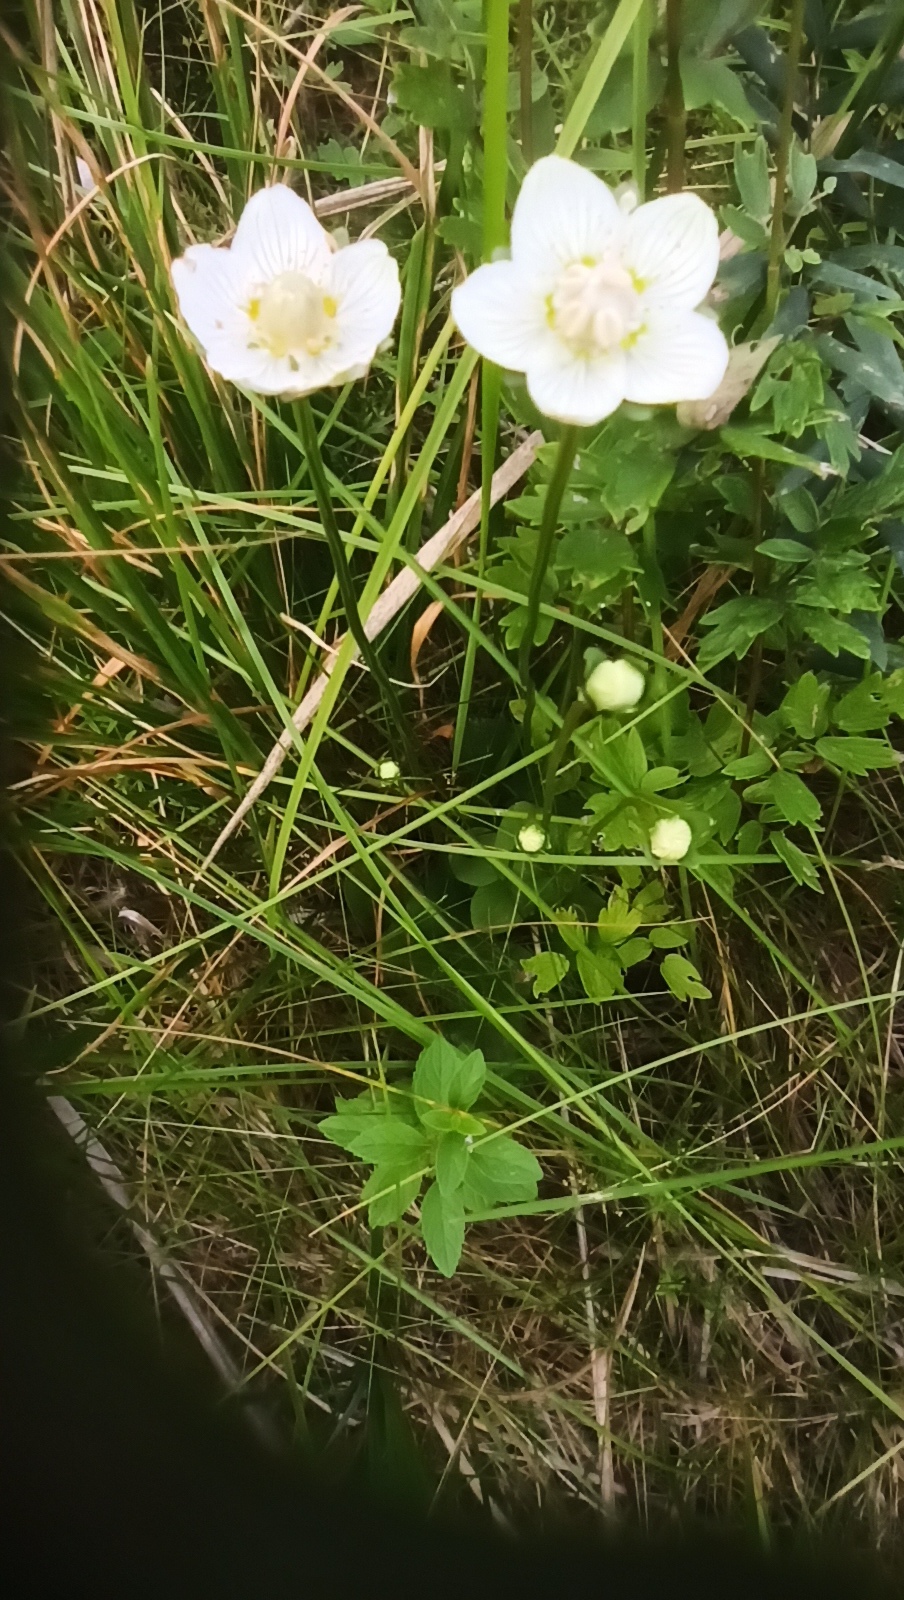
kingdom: Plantae
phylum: Tracheophyta
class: Magnoliopsida
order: Celastrales
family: Parnassiaceae
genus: Parnassia
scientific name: Parnassia palustris
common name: Grass-of-parnassus
